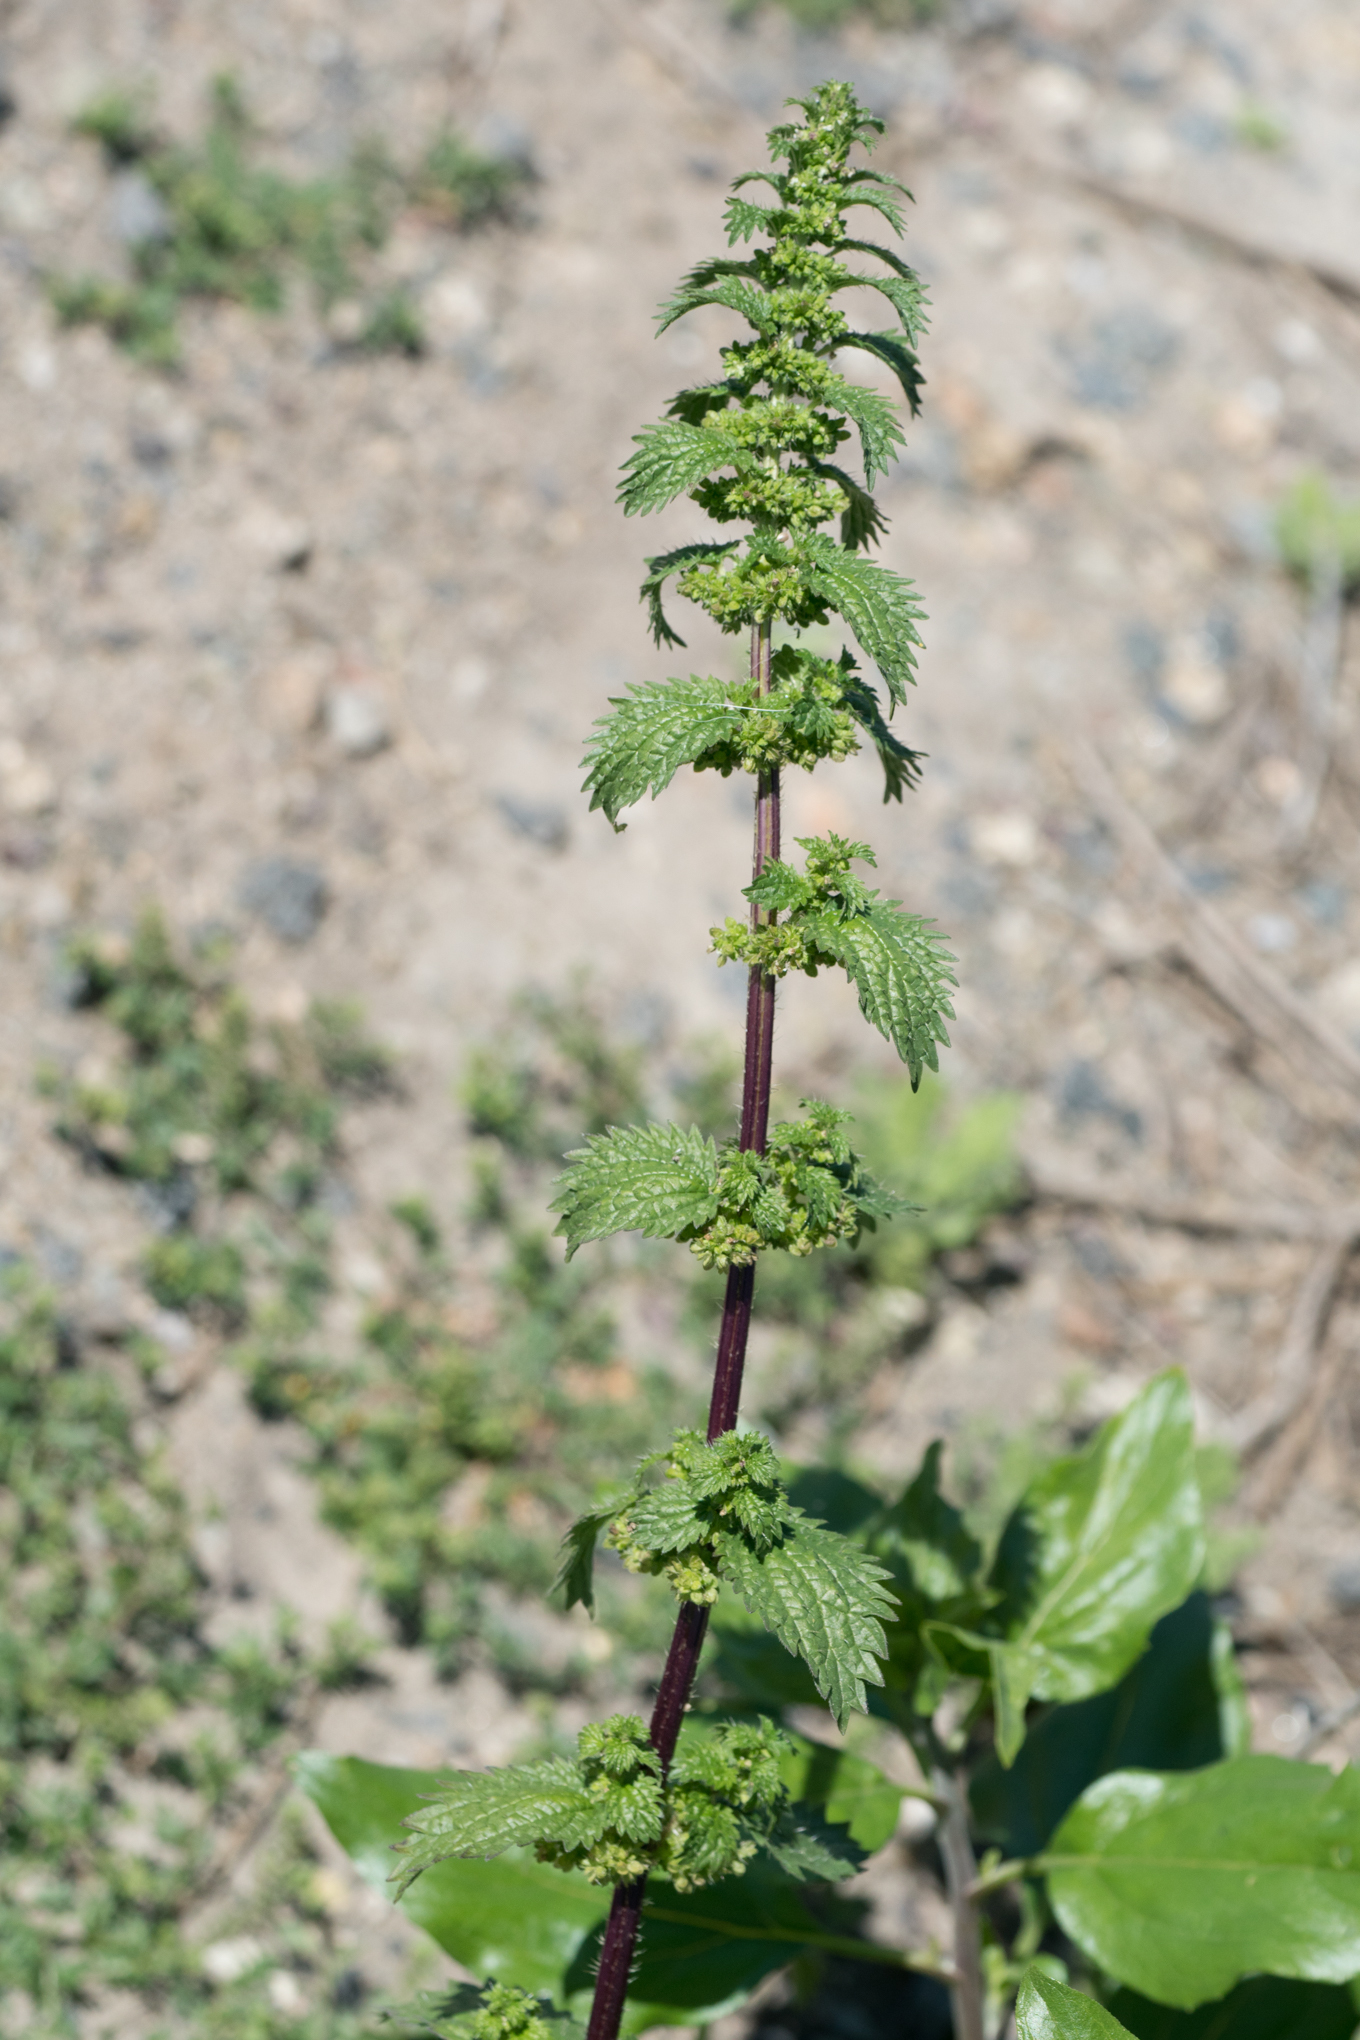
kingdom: Plantae
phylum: Tracheophyta
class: Magnoliopsida
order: Rosales
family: Urticaceae
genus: Urtica
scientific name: Urtica urens
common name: Dwarf nettle
